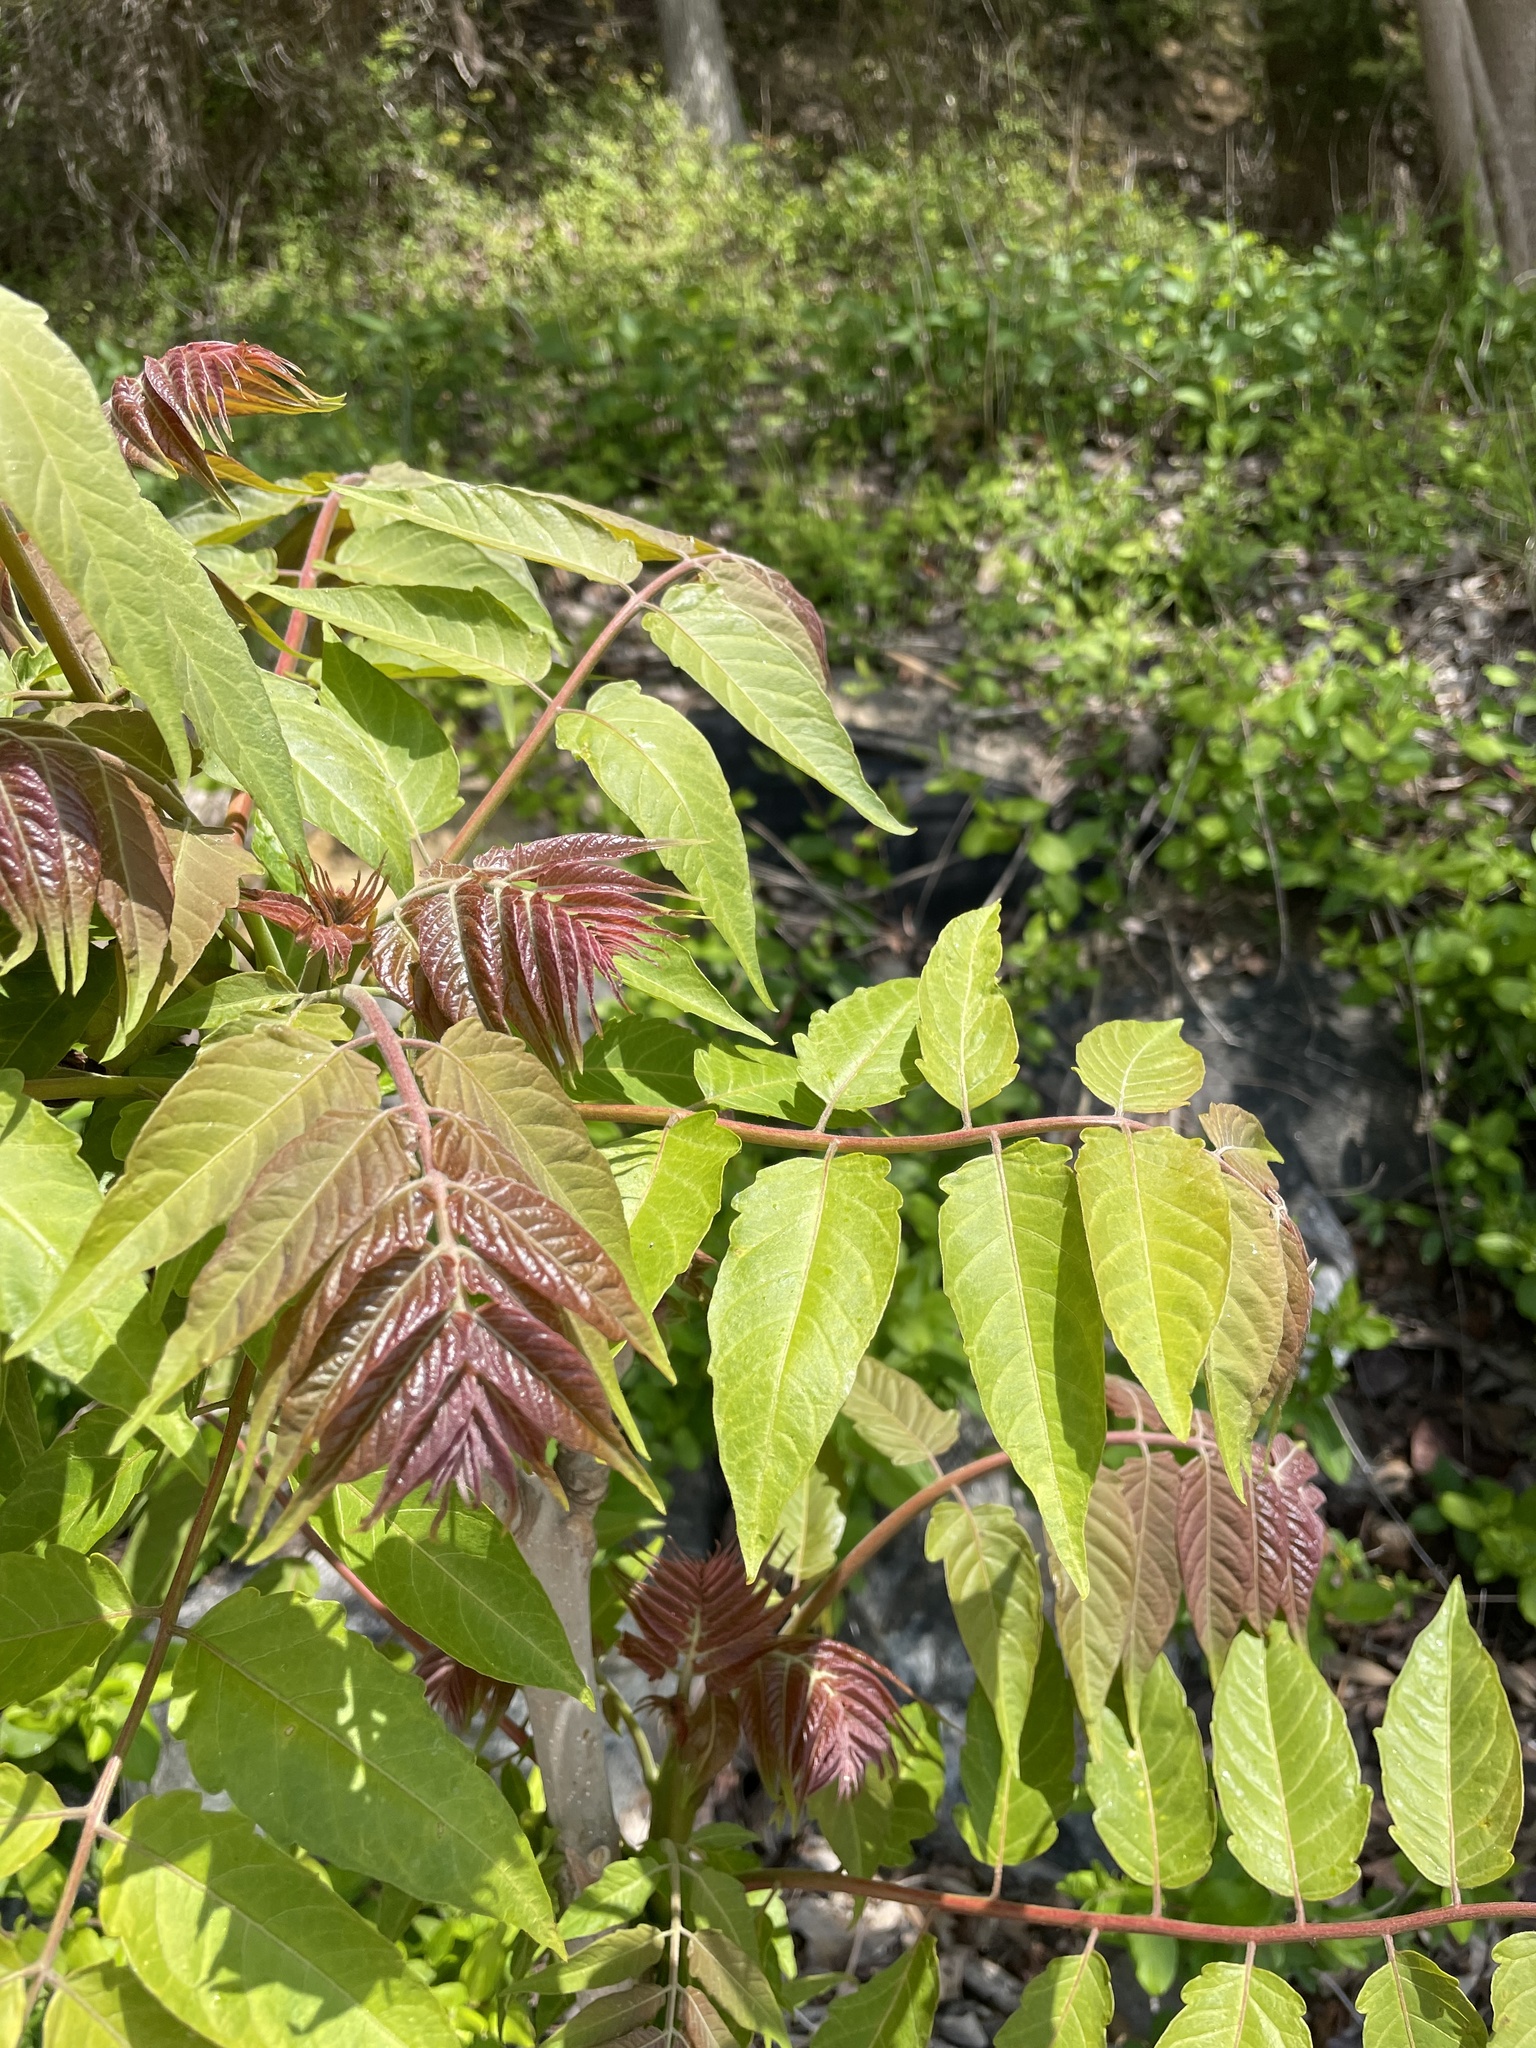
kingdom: Plantae
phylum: Tracheophyta
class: Magnoliopsida
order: Sapindales
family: Simaroubaceae
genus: Ailanthus
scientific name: Ailanthus altissima
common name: Tree-of-heaven
